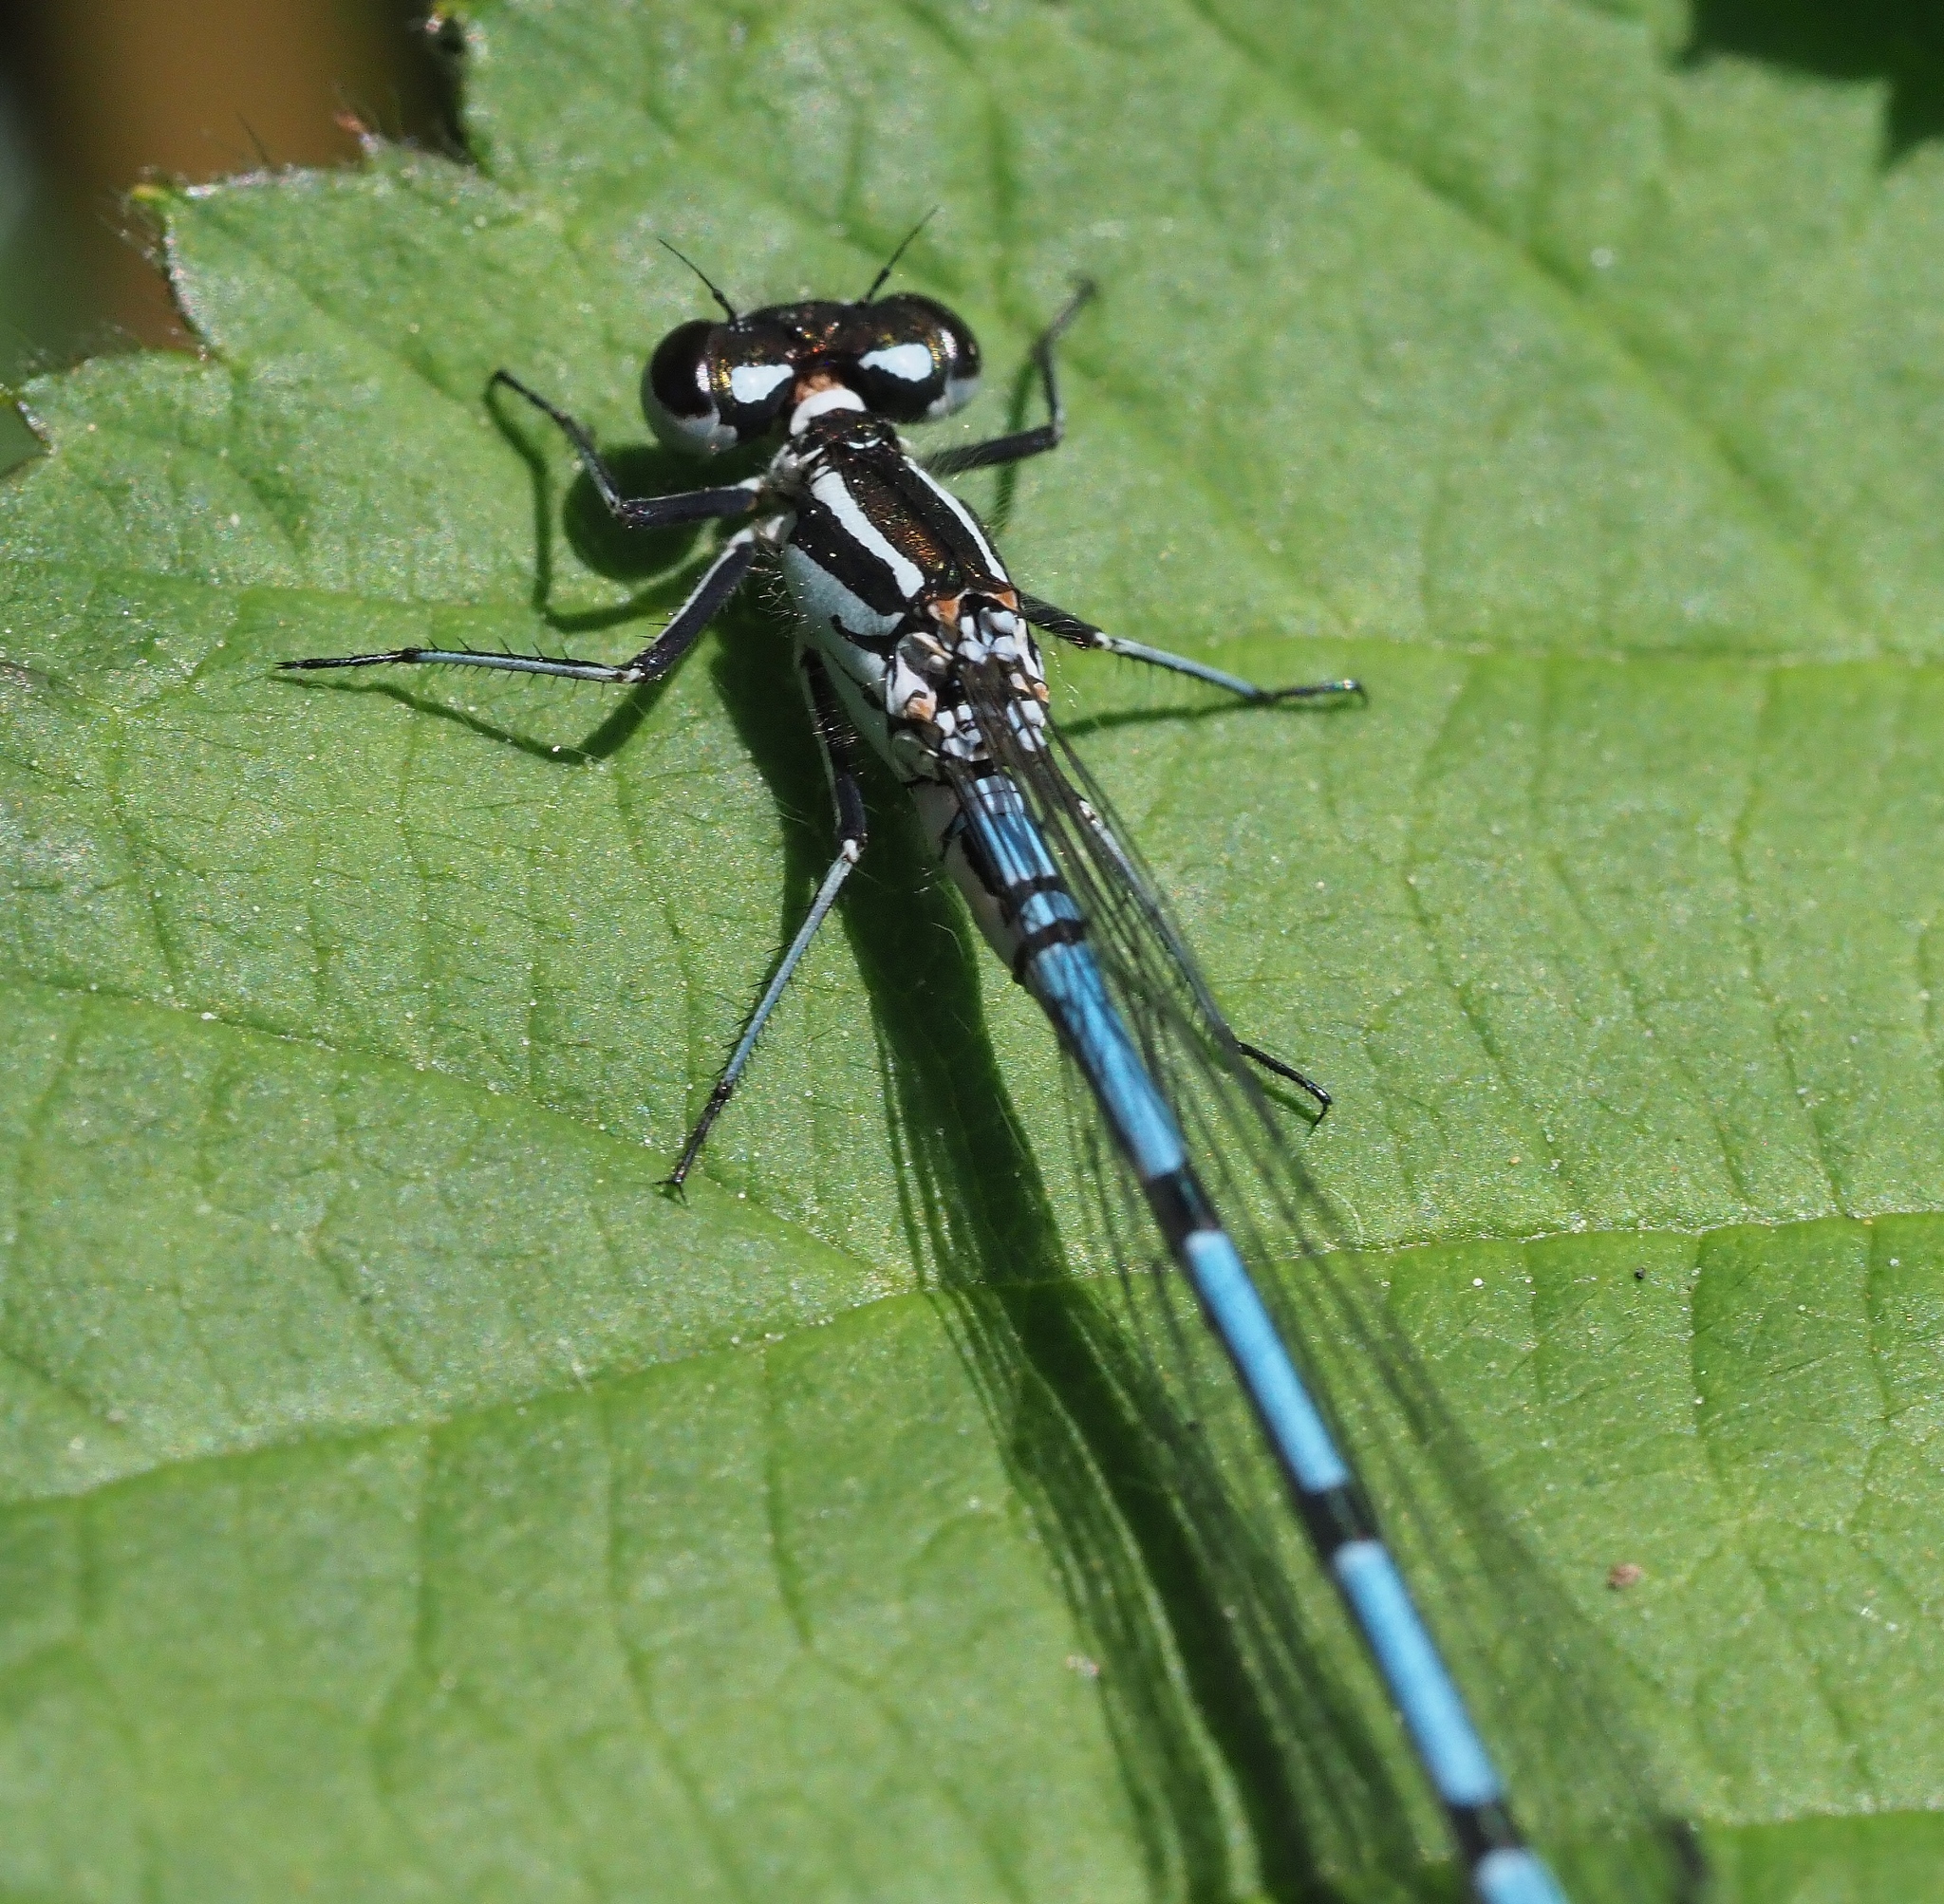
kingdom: Animalia
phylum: Arthropoda
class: Insecta
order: Odonata
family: Coenagrionidae
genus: Coenagrion
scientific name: Coenagrion puella
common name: Azure damselfly
